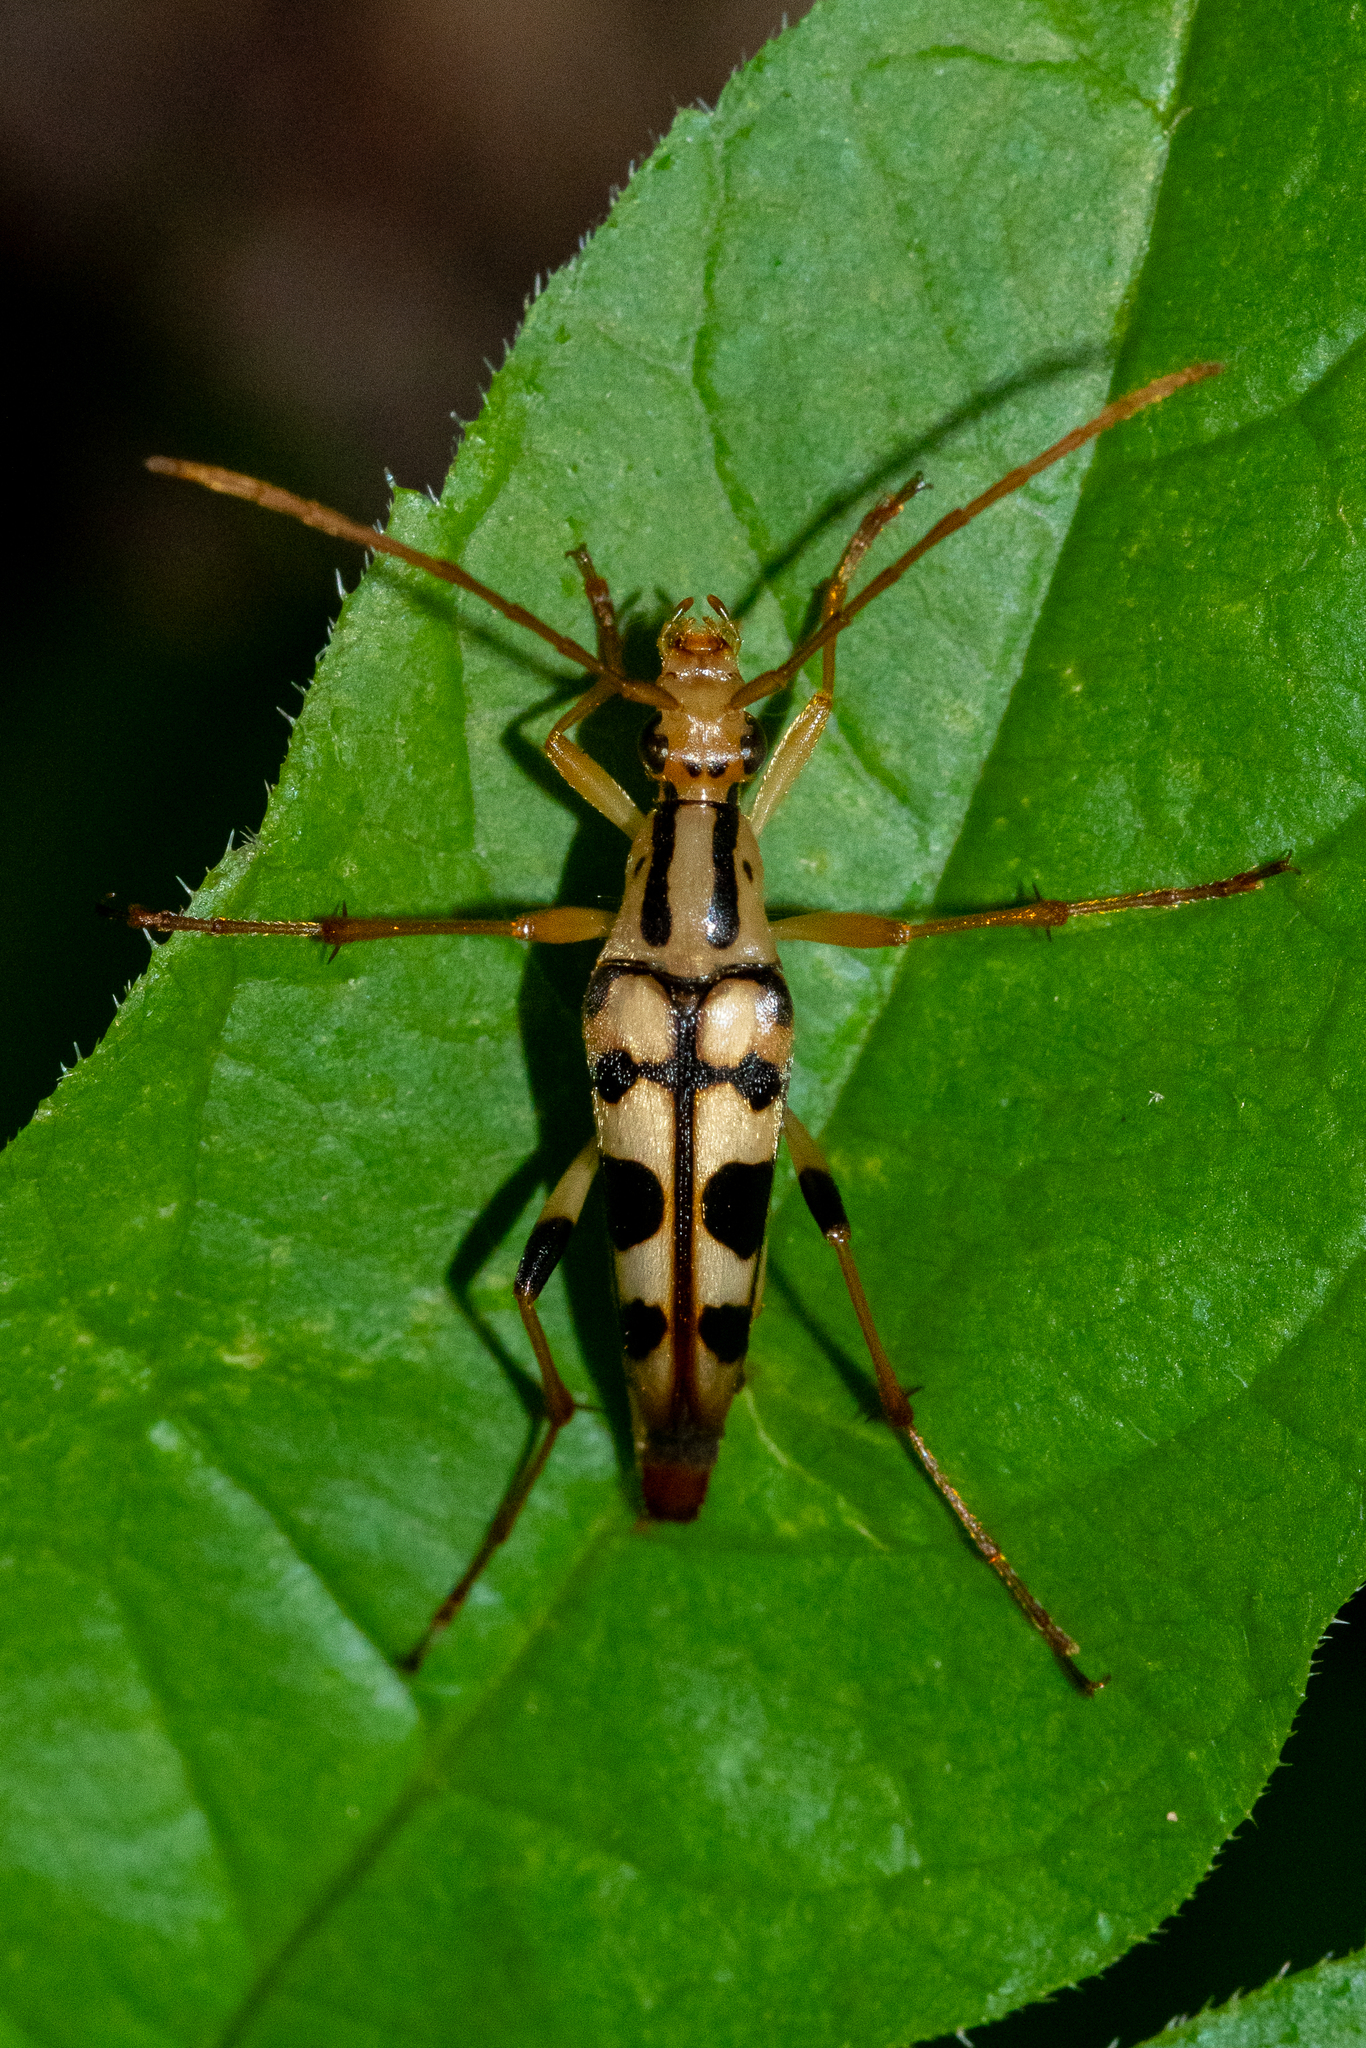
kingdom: Animalia
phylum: Arthropoda
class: Insecta
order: Coleoptera
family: Cerambycidae
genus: Strangalia
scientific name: Strangalia luteicornis
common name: Yellow-horned flower longhorn beetle
